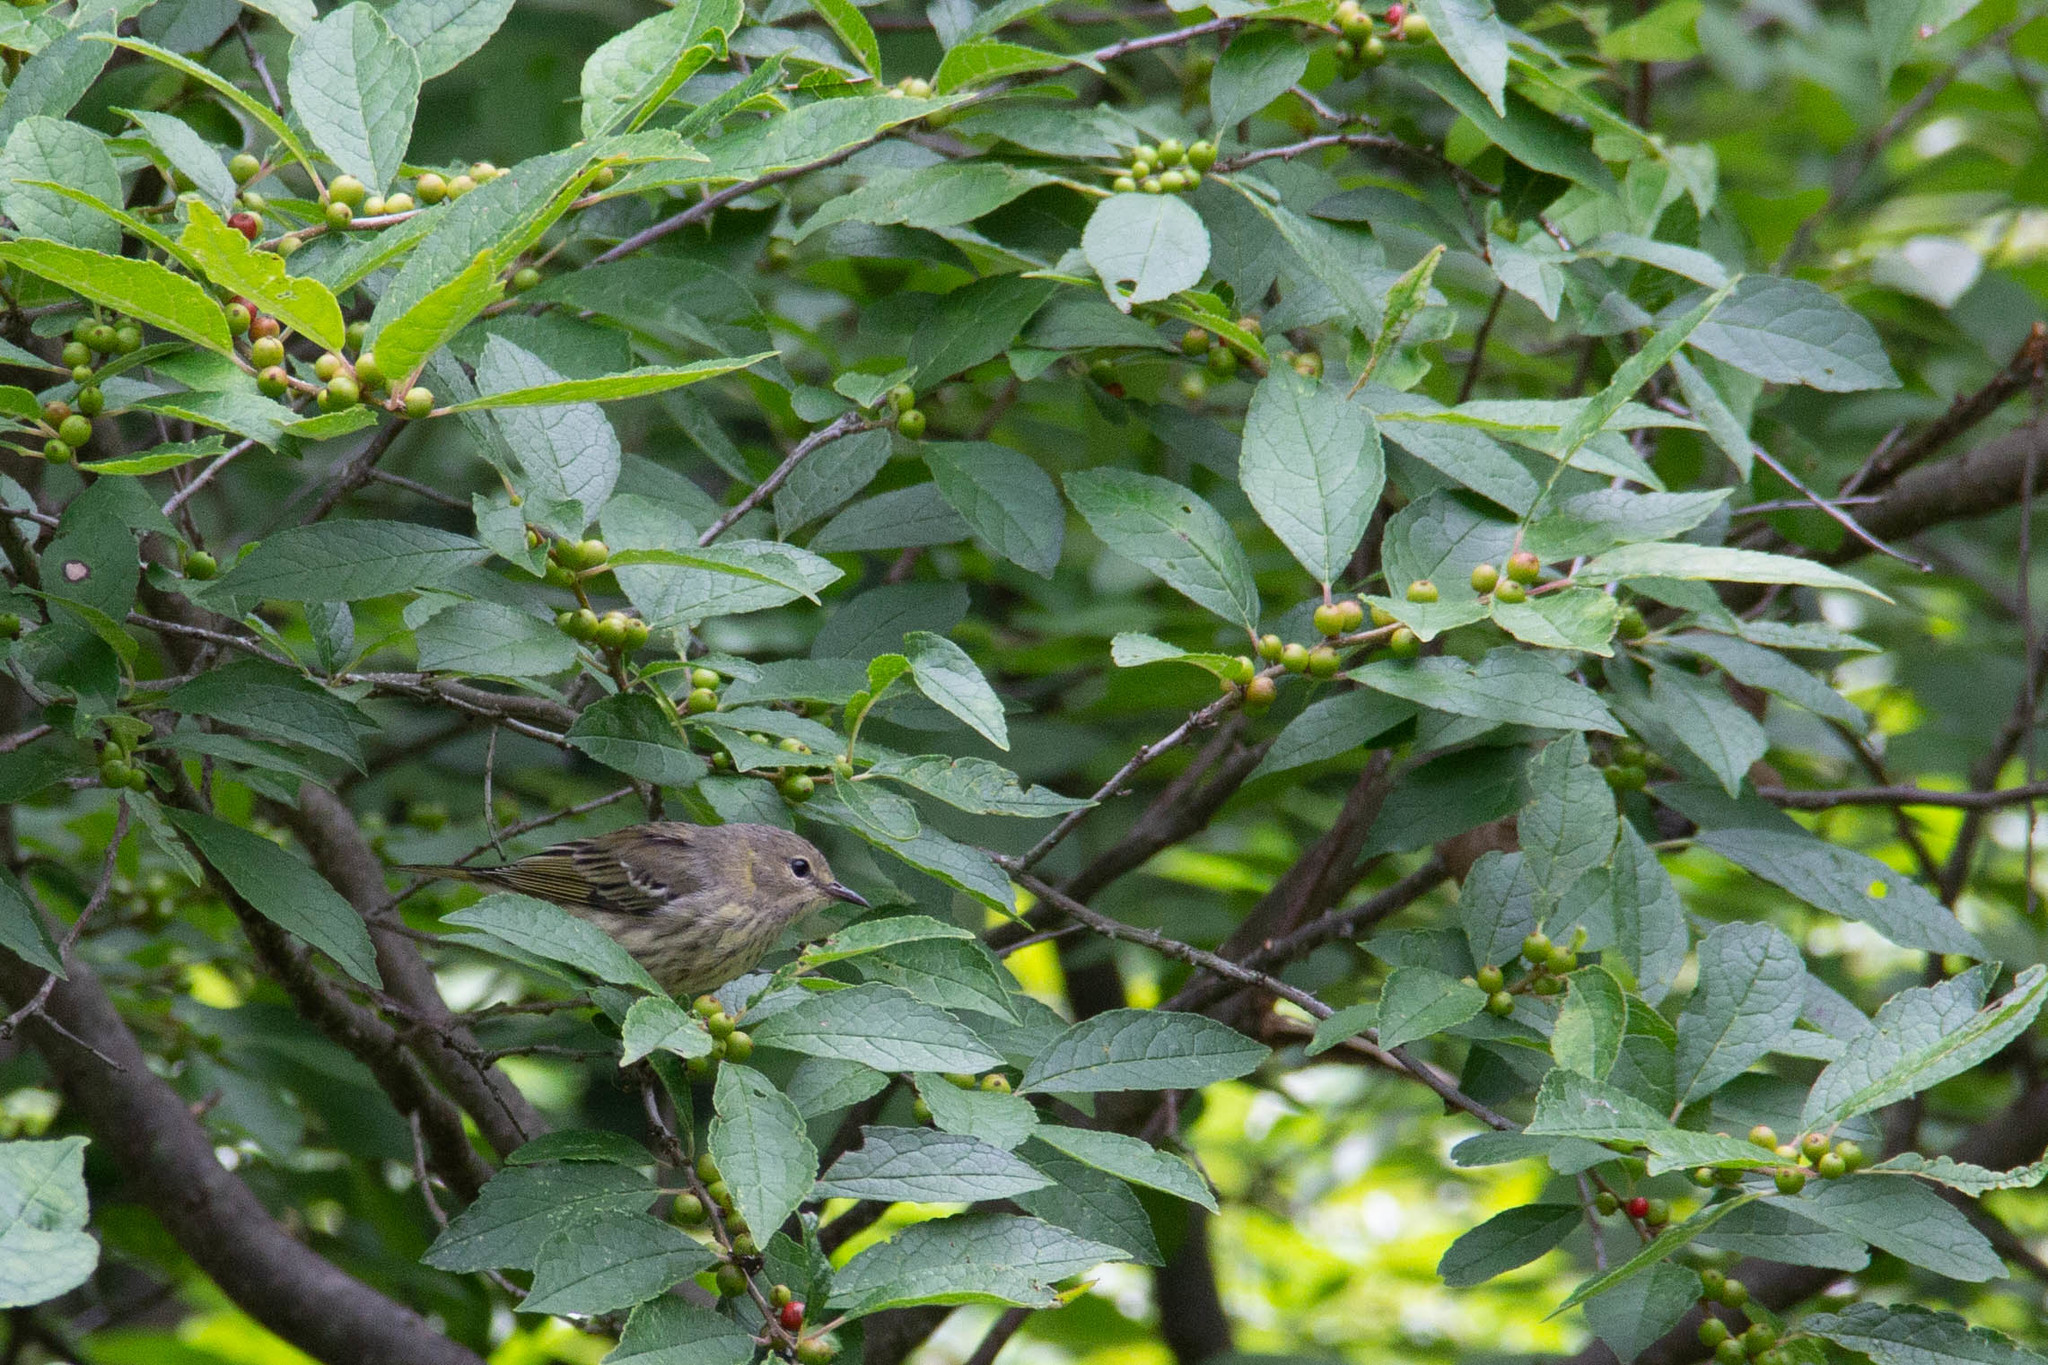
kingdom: Animalia
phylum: Chordata
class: Aves
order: Passeriformes
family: Parulidae
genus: Setophaga
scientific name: Setophaga tigrina
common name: Cape may warbler
